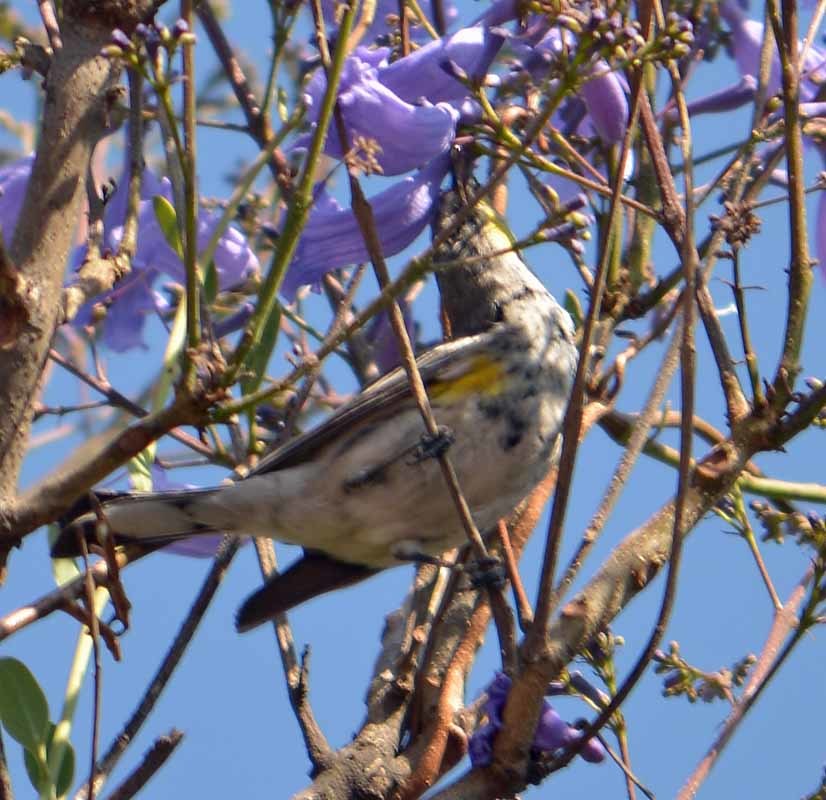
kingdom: Animalia
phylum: Chordata
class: Aves
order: Passeriformes
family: Parulidae
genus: Setophaga
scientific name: Setophaga coronata
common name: Myrtle warbler
